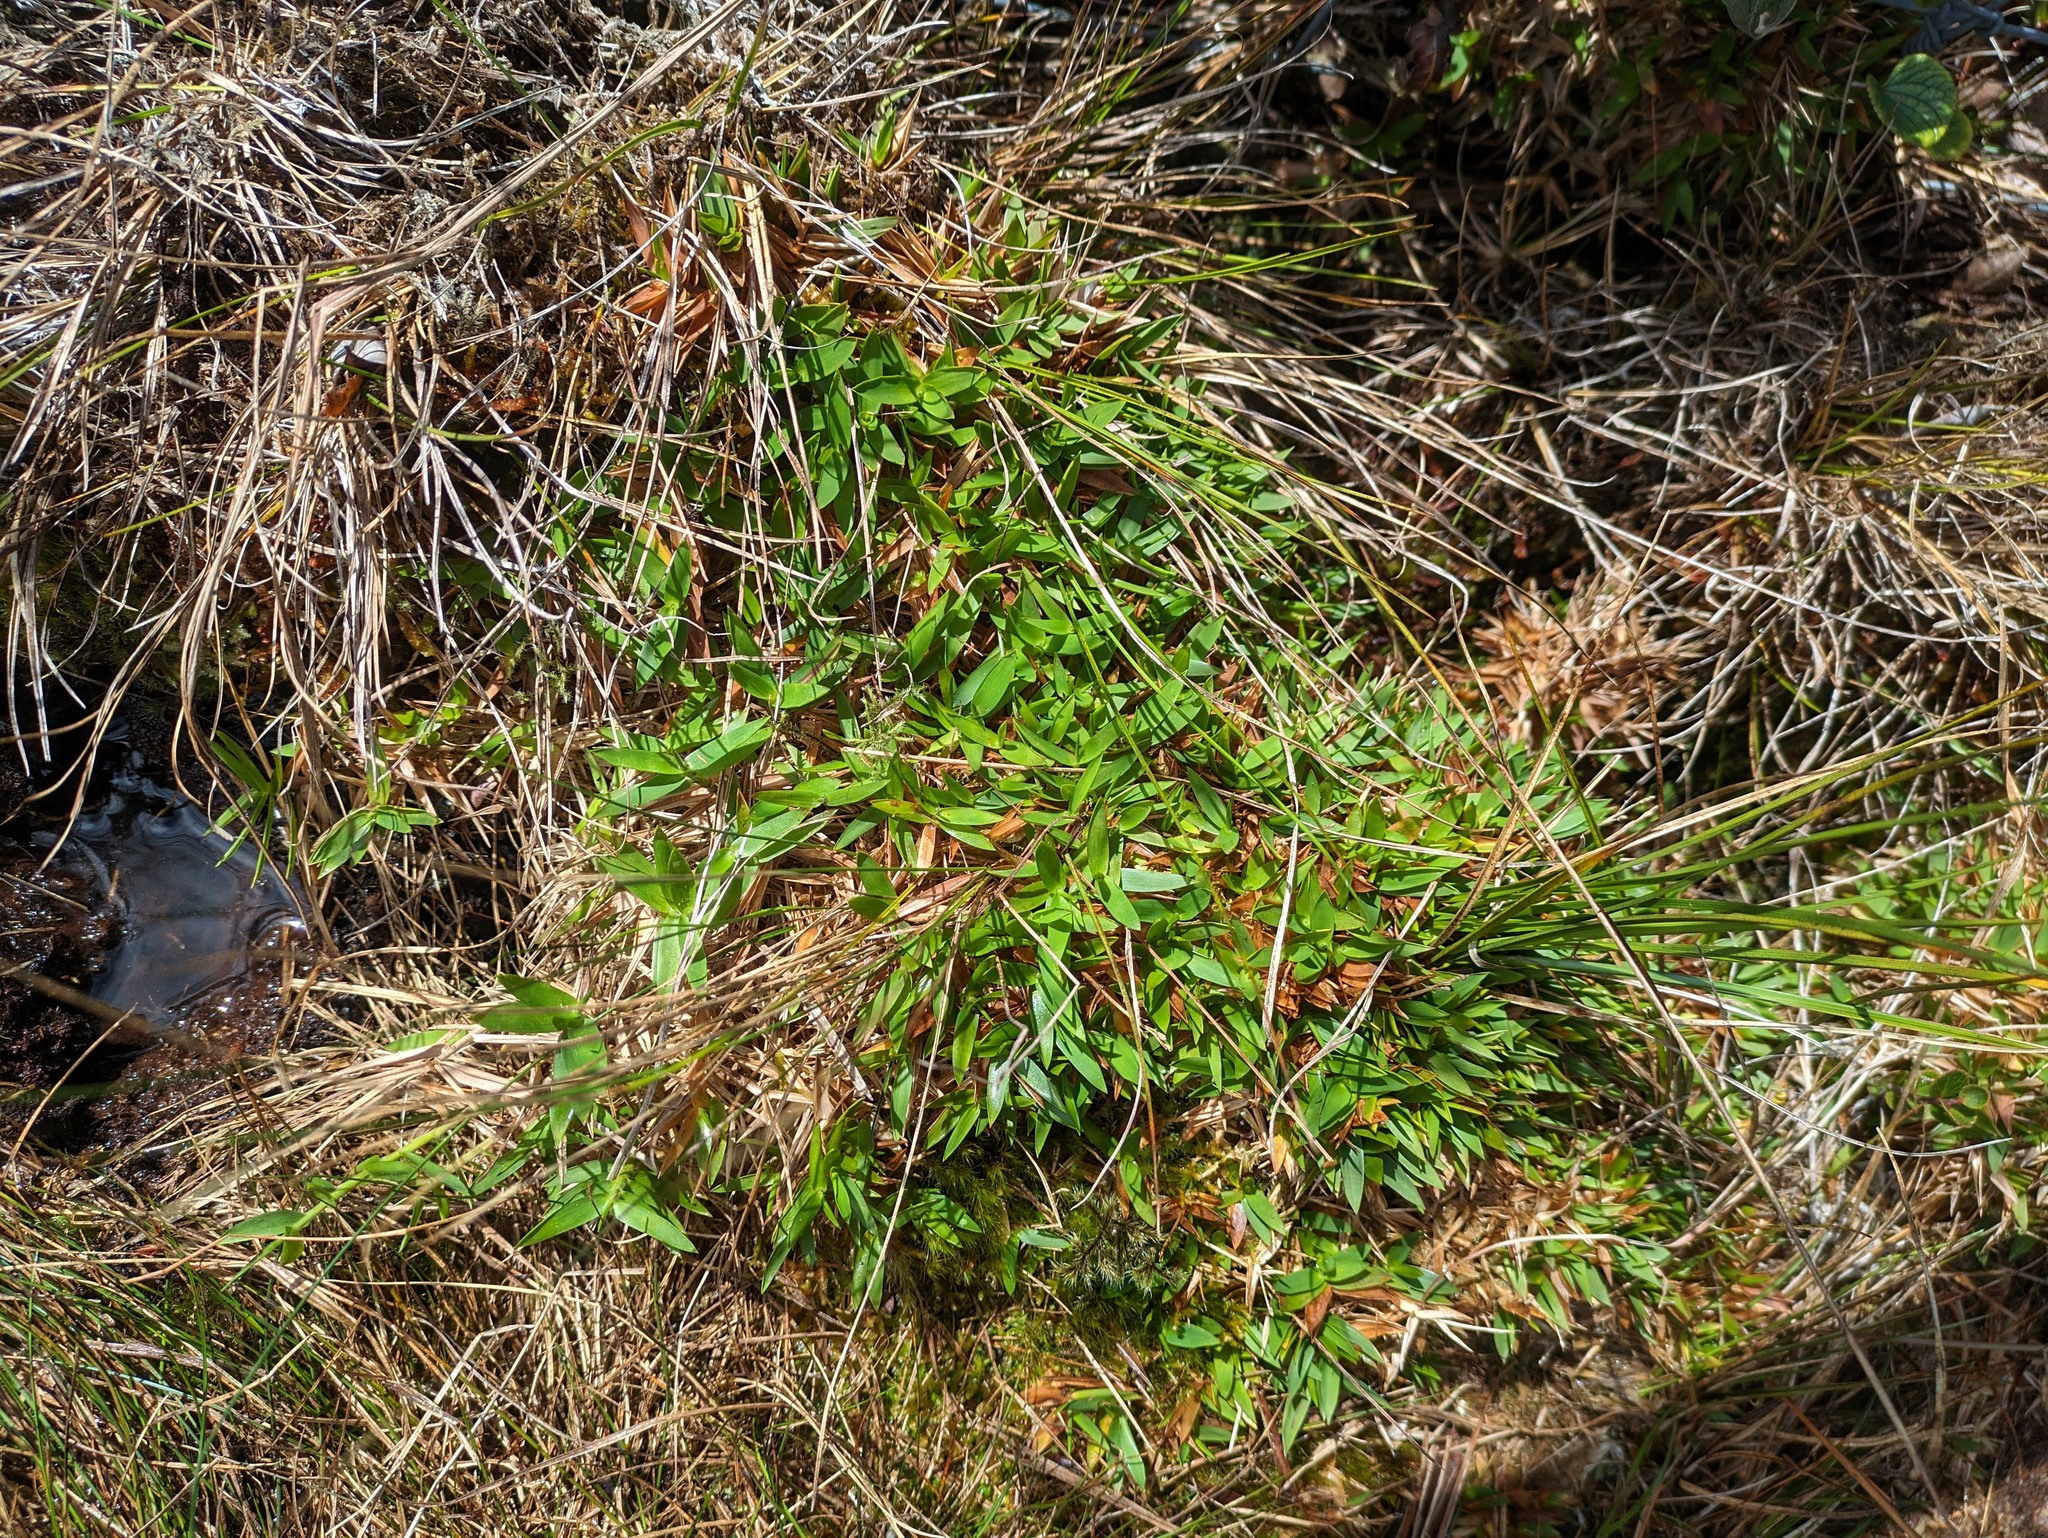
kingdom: Plantae
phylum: Tracheophyta
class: Liliopsida
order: Poales
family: Poaceae
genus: Dichanthelium
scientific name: Dichanthelium cynodon
